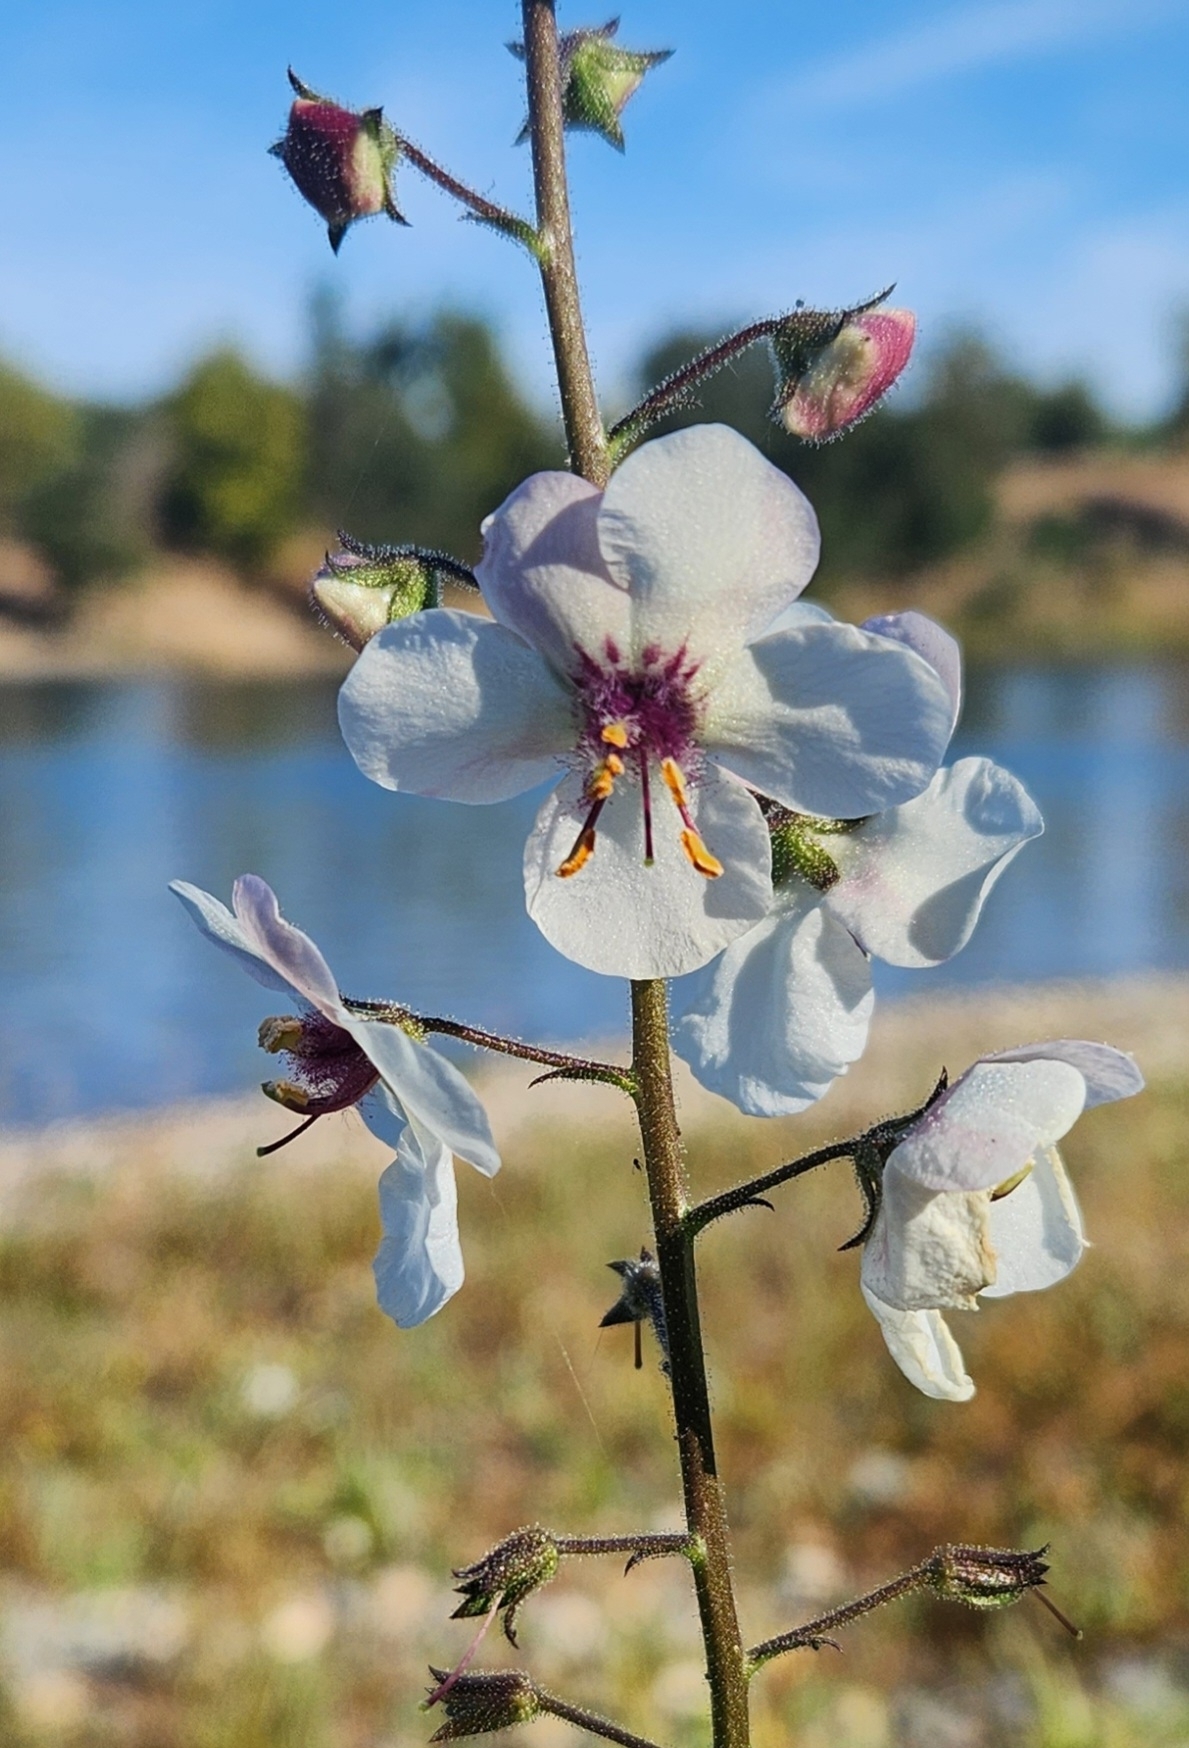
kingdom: Plantae
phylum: Tracheophyta
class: Magnoliopsida
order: Lamiales
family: Scrophulariaceae
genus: Verbascum
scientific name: Verbascum blattaria
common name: Moth mullein
